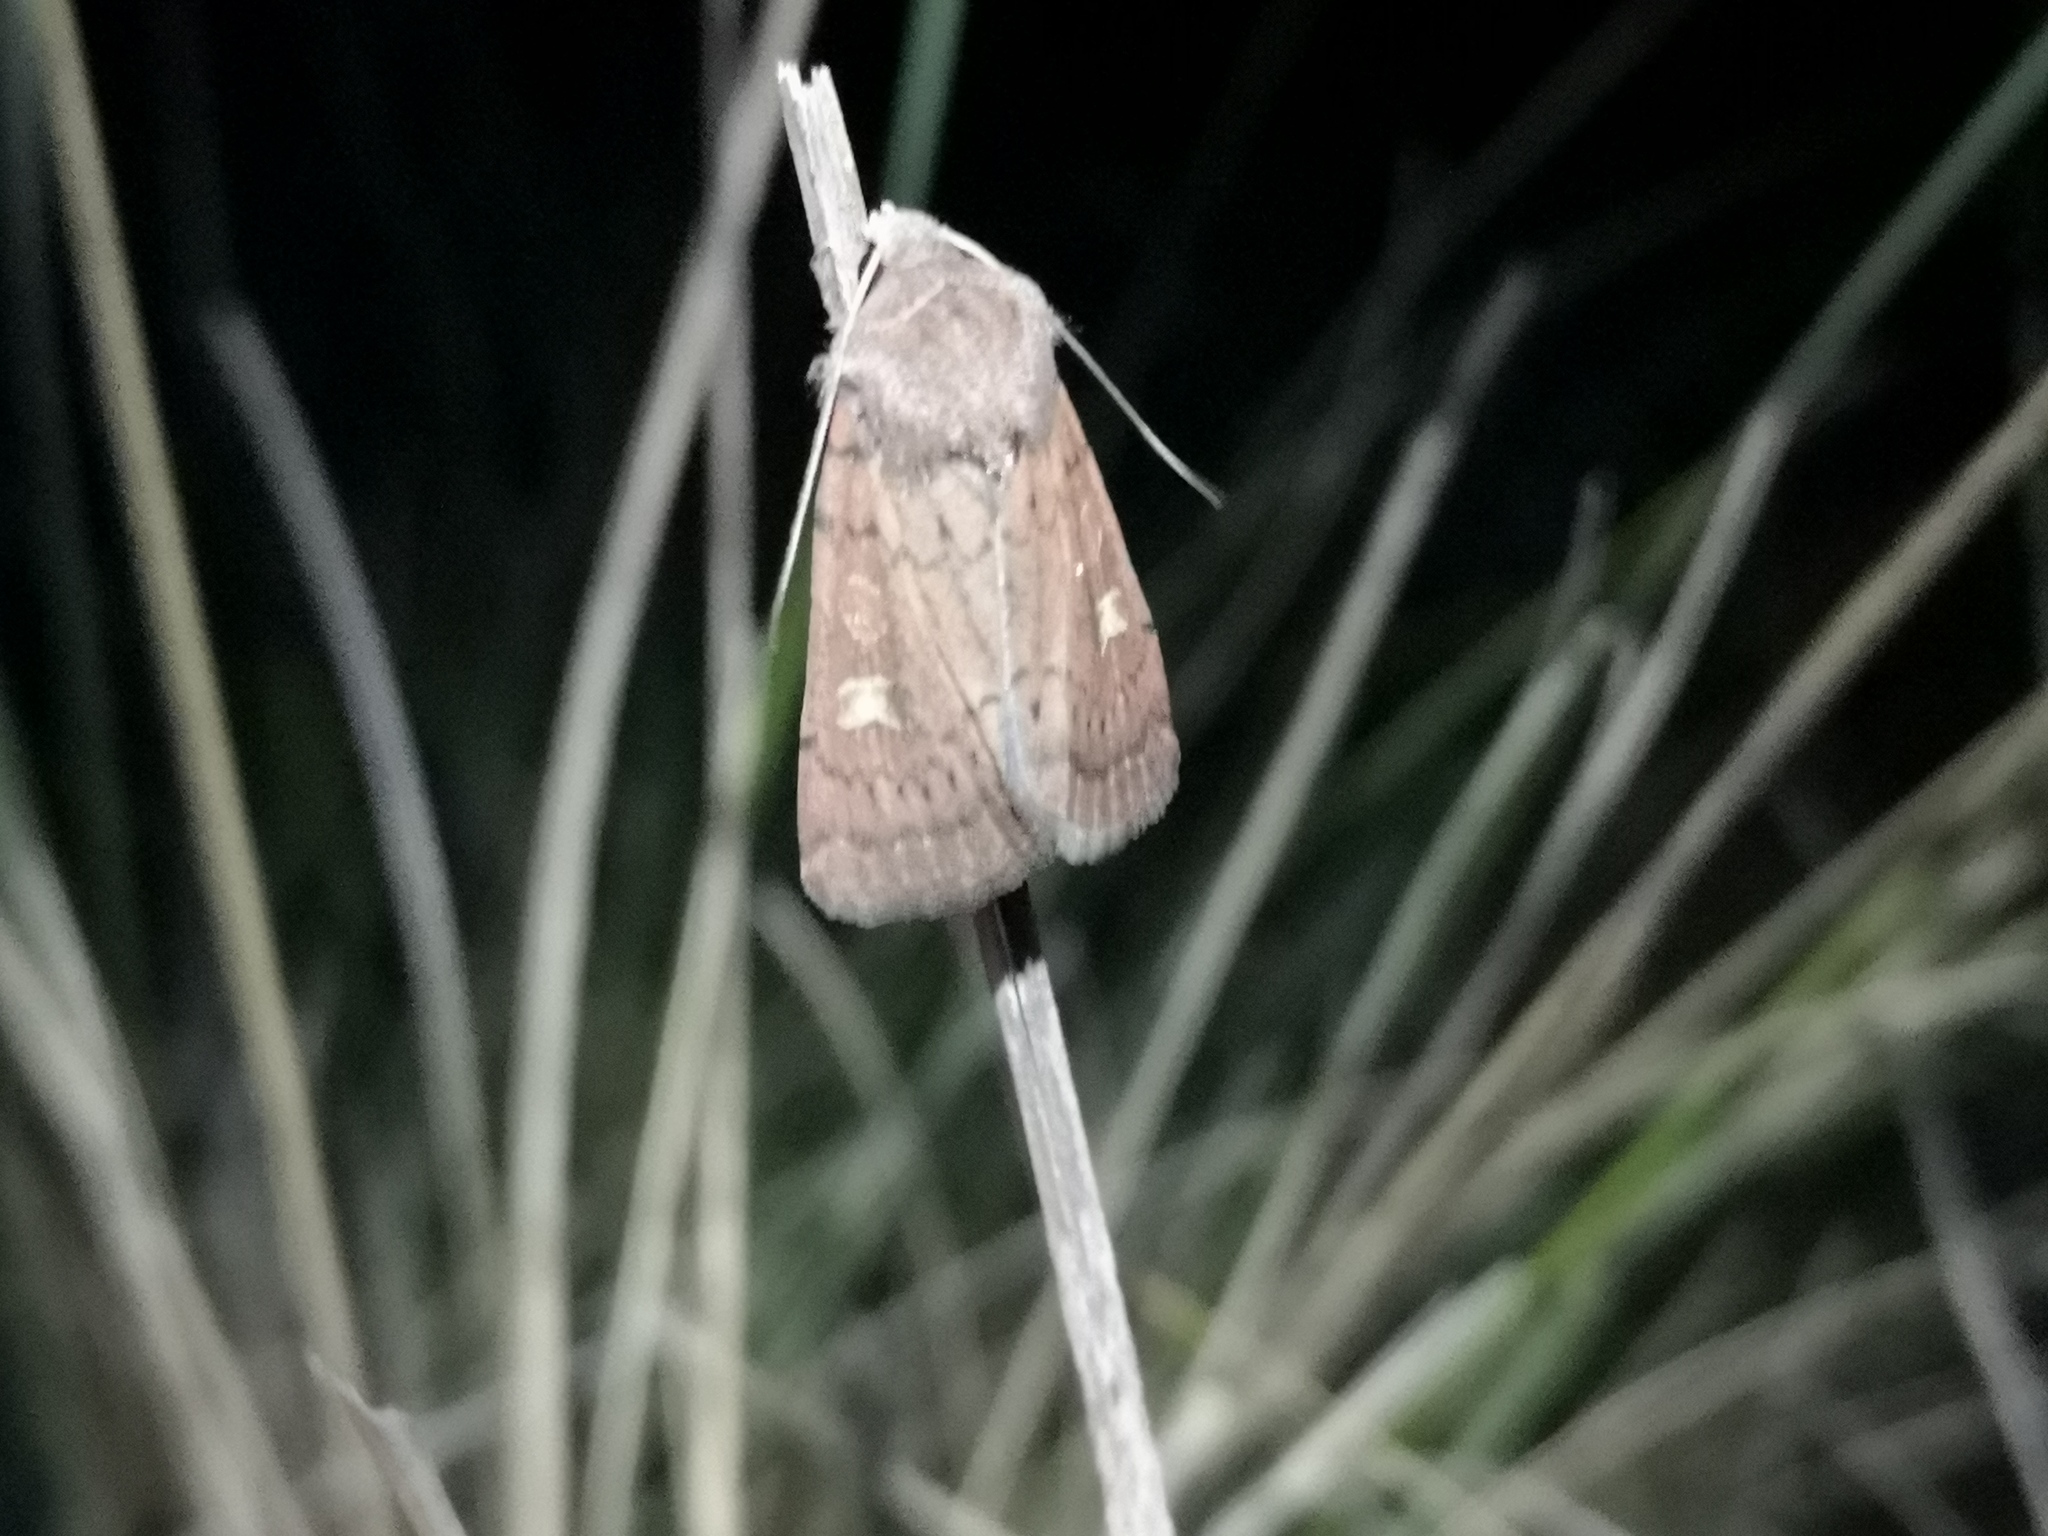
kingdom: Animalia
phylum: Arthropoda
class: Insecta
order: Lepidoptera
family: Noctuidae
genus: Xestia
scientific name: Xestia xanthographa
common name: Square-spot rustic
